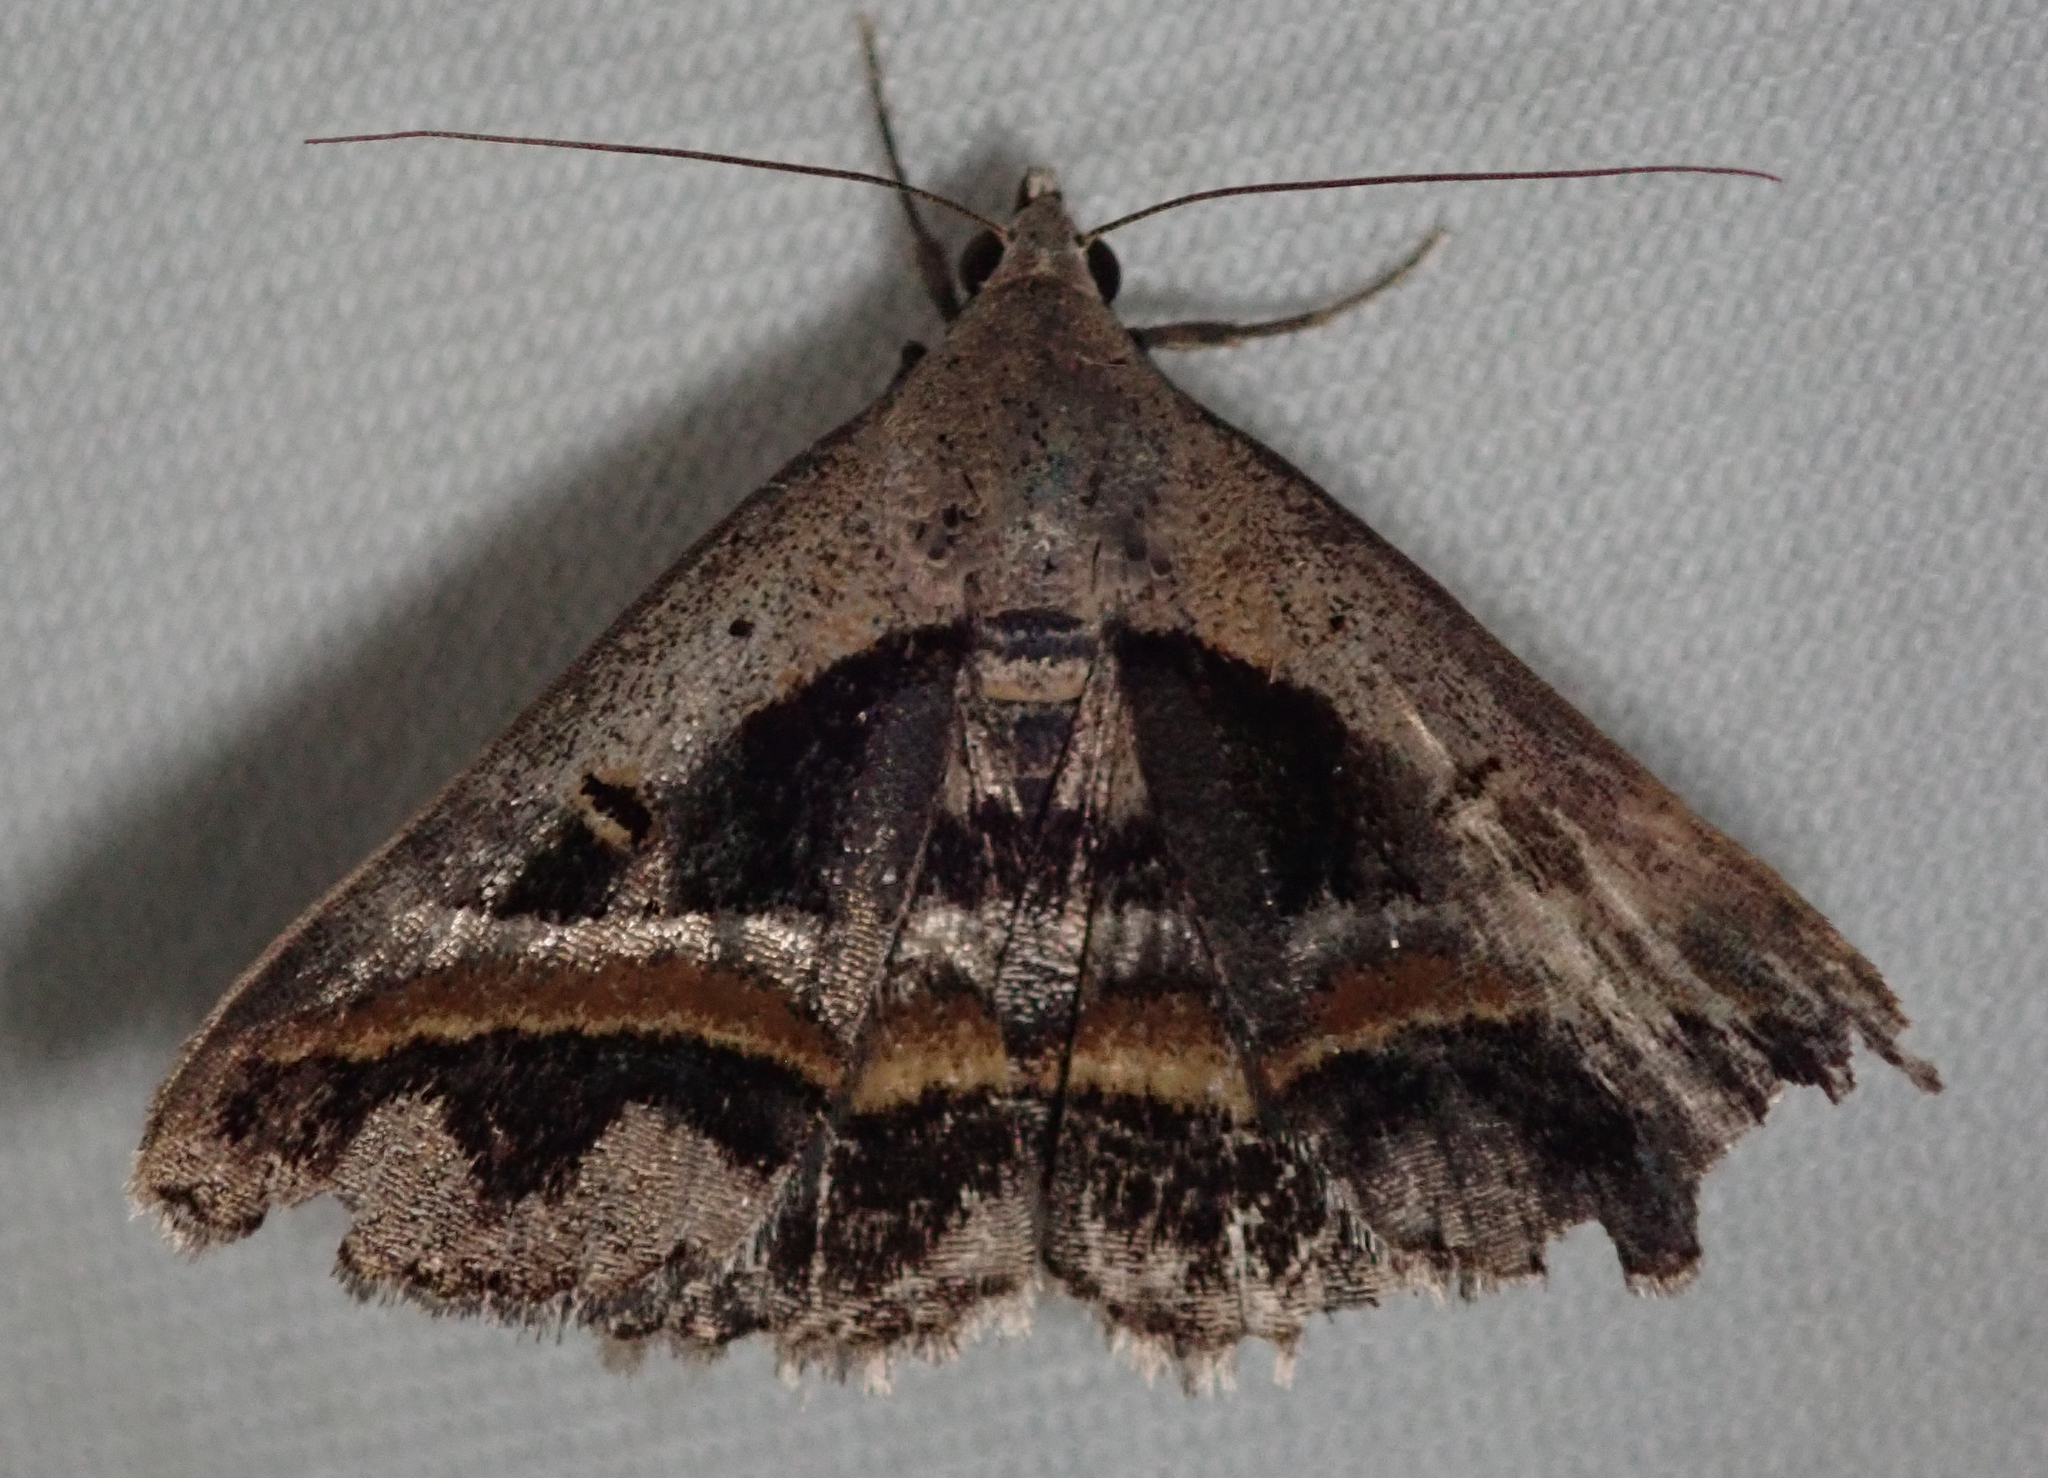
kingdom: Animalia
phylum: Arthropoda
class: Insecta
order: Lepidoptera
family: Erebidae
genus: Acantholipes
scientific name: Acantholipes trimeni
